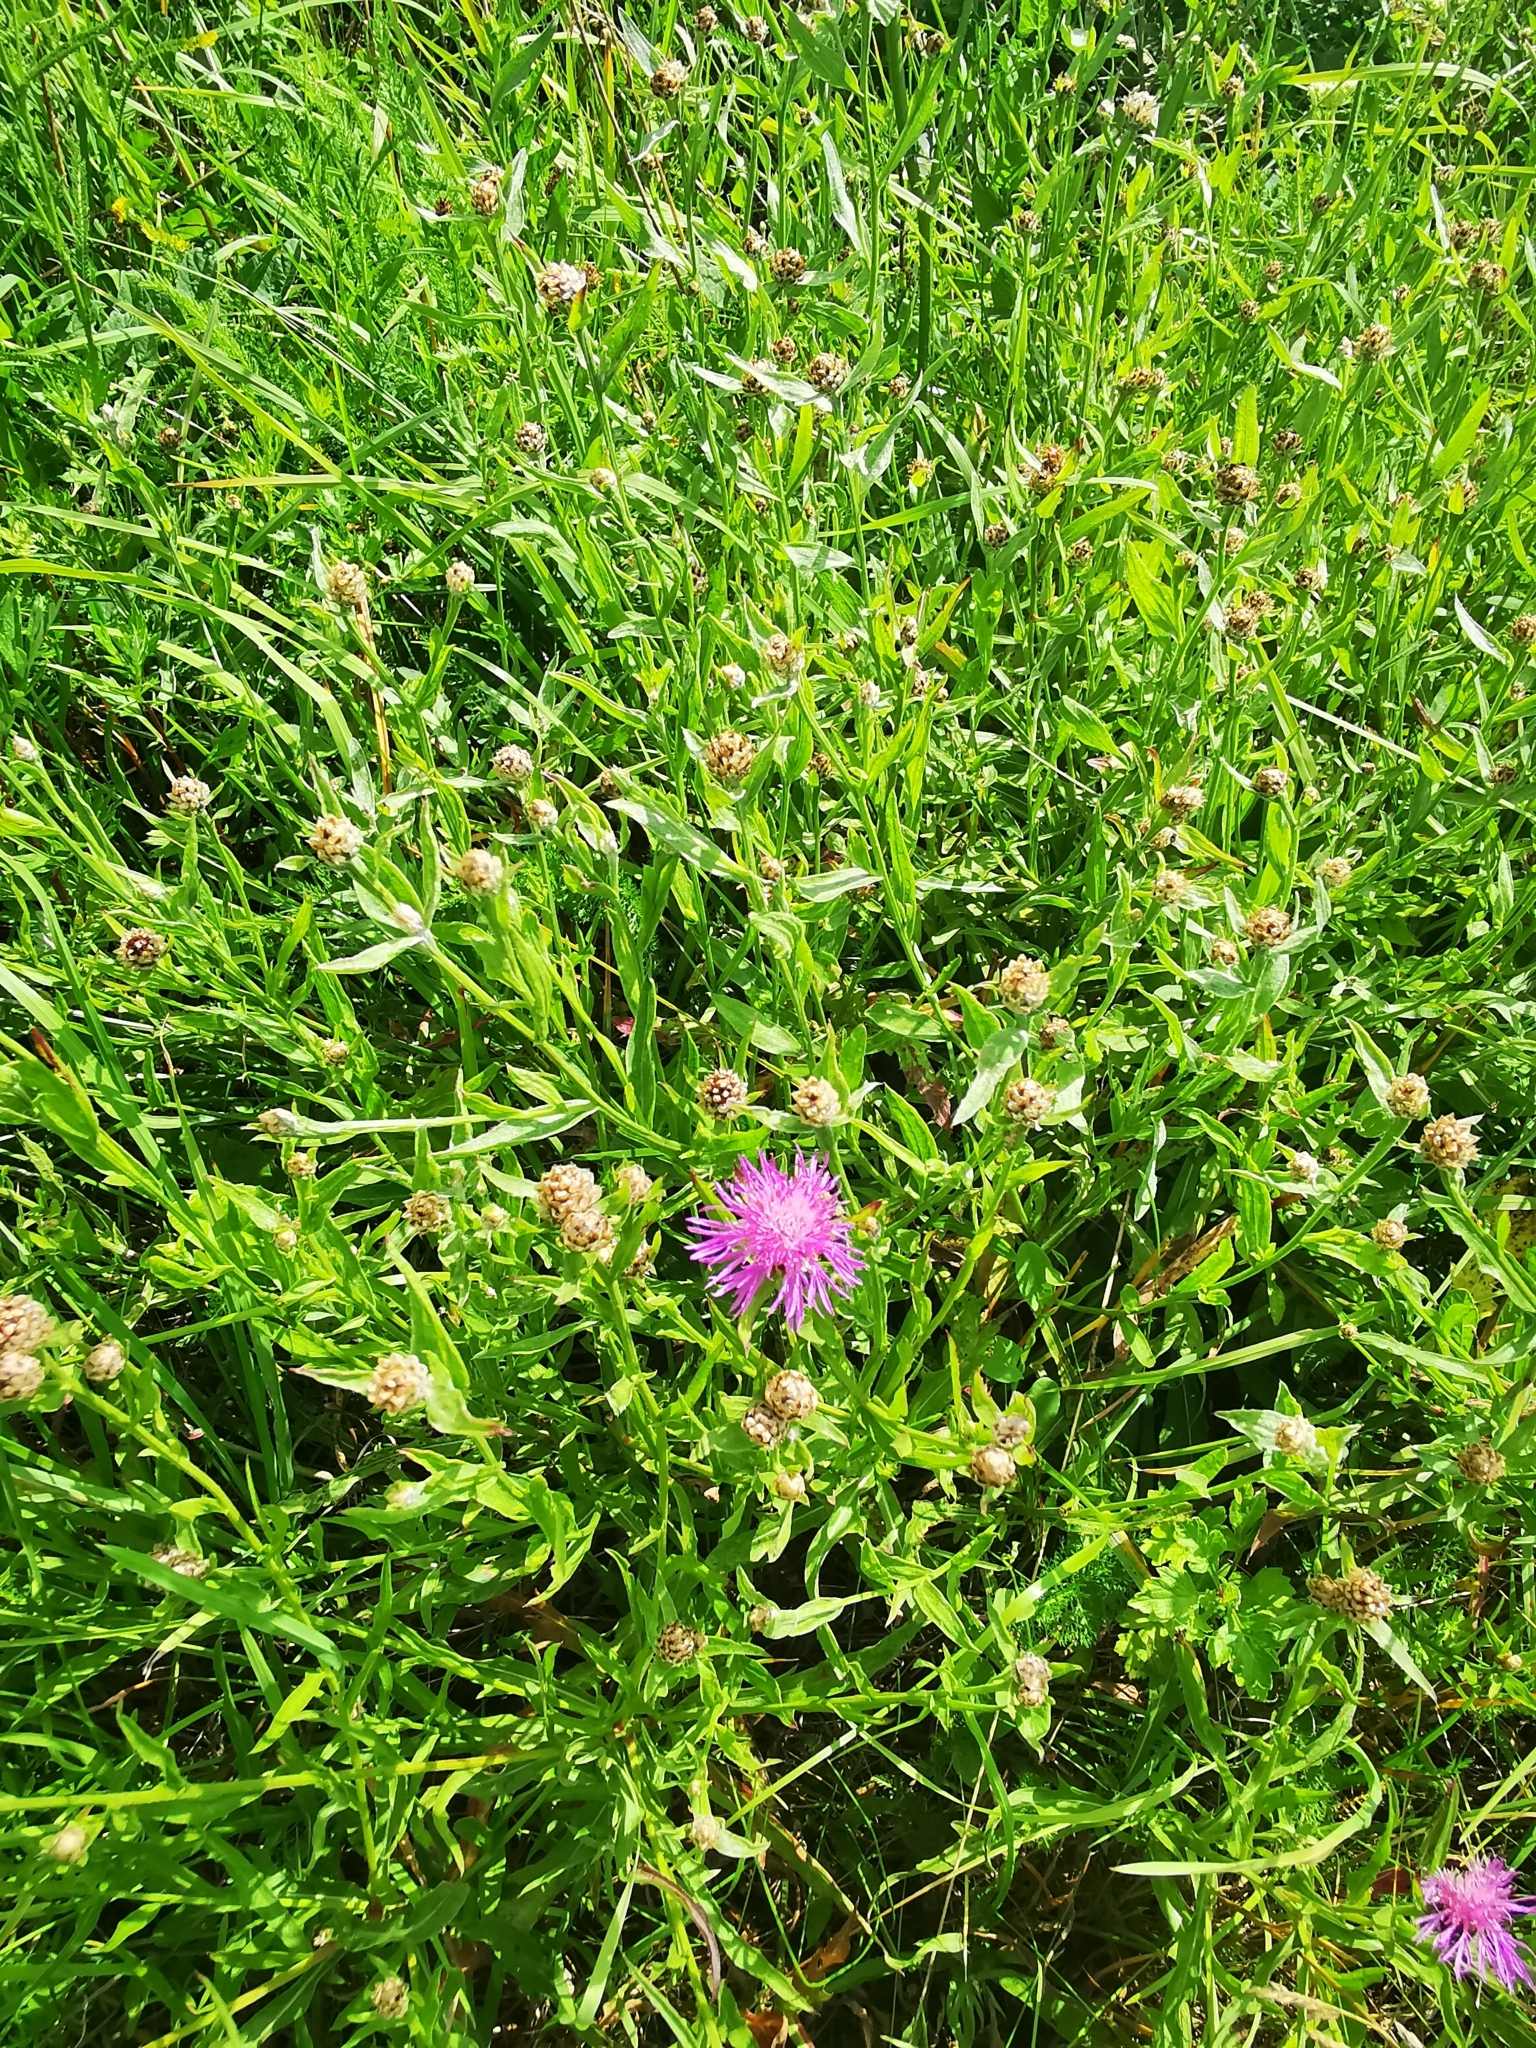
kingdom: Plantae
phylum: Tracheophyta
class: Magnoliopsida
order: Asterales
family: Asteraceae
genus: Centaurea
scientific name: Centaurea jacea
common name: Brown knapweed
